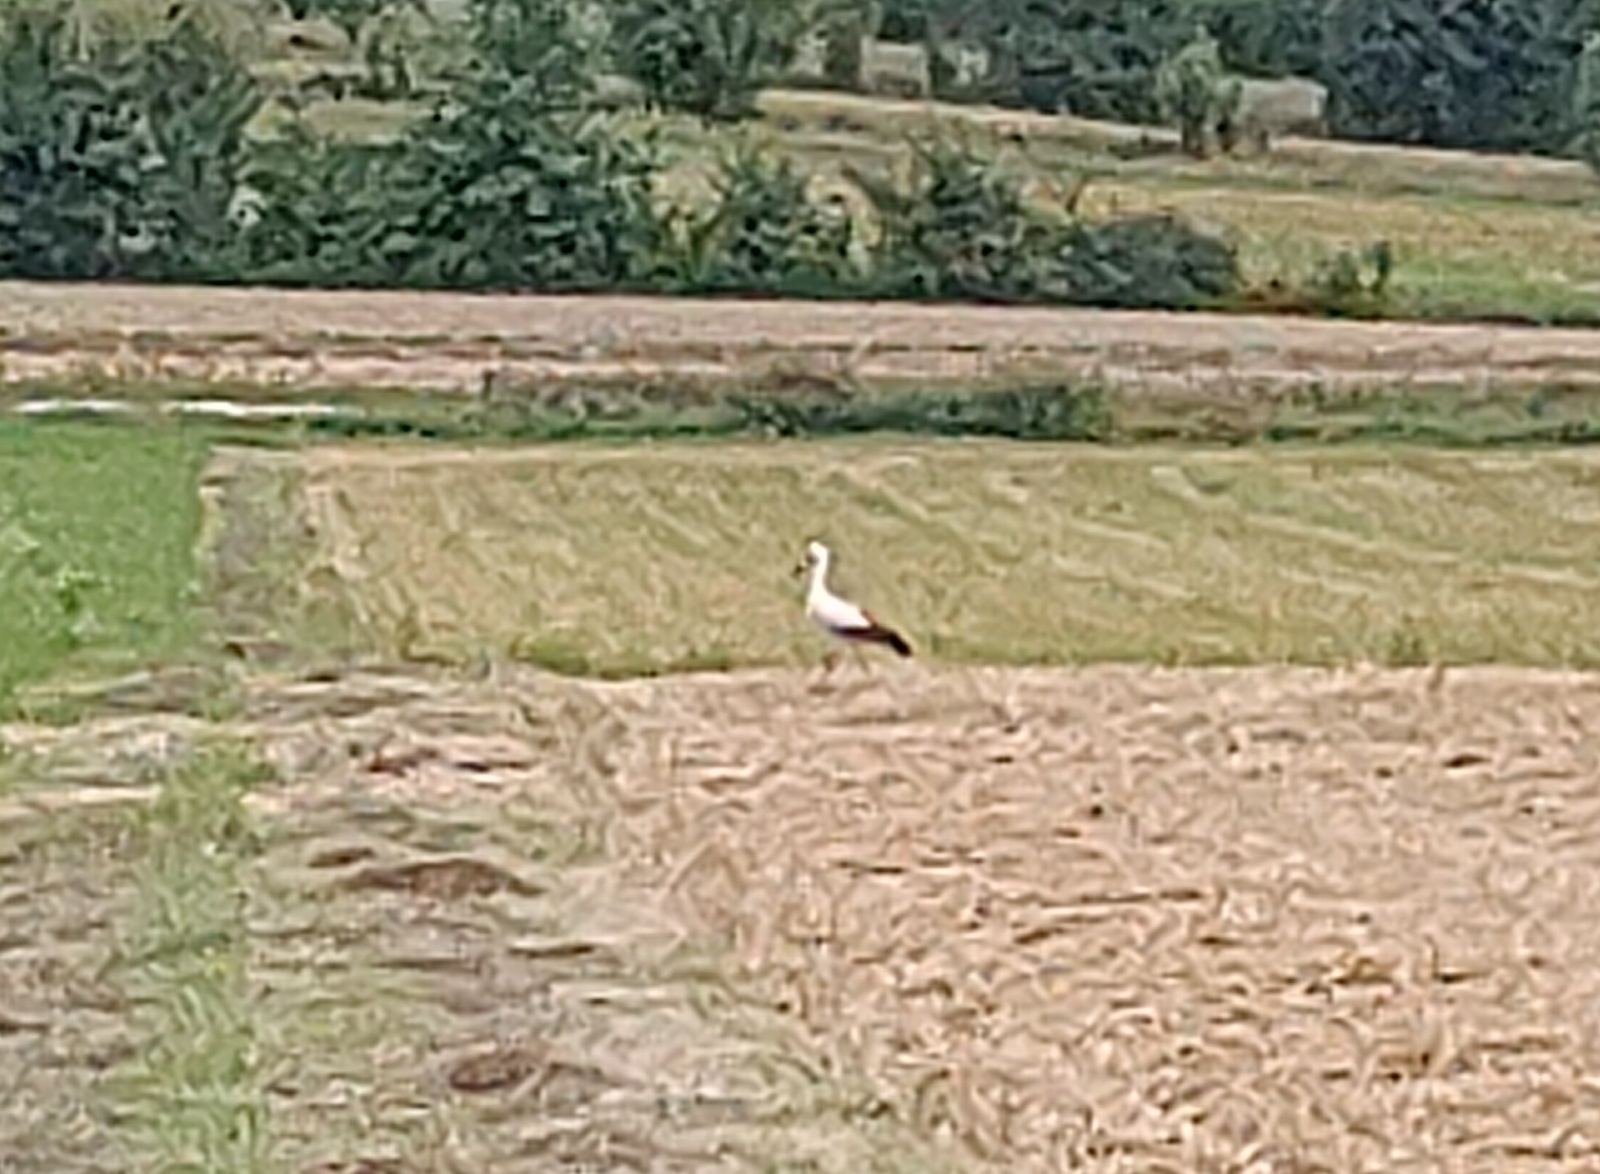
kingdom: Animalia
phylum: Chordata
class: Aves
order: Ciconiiformes
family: Ciconiidae
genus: Ciconia
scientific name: Ciconia ciconia
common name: White stork
